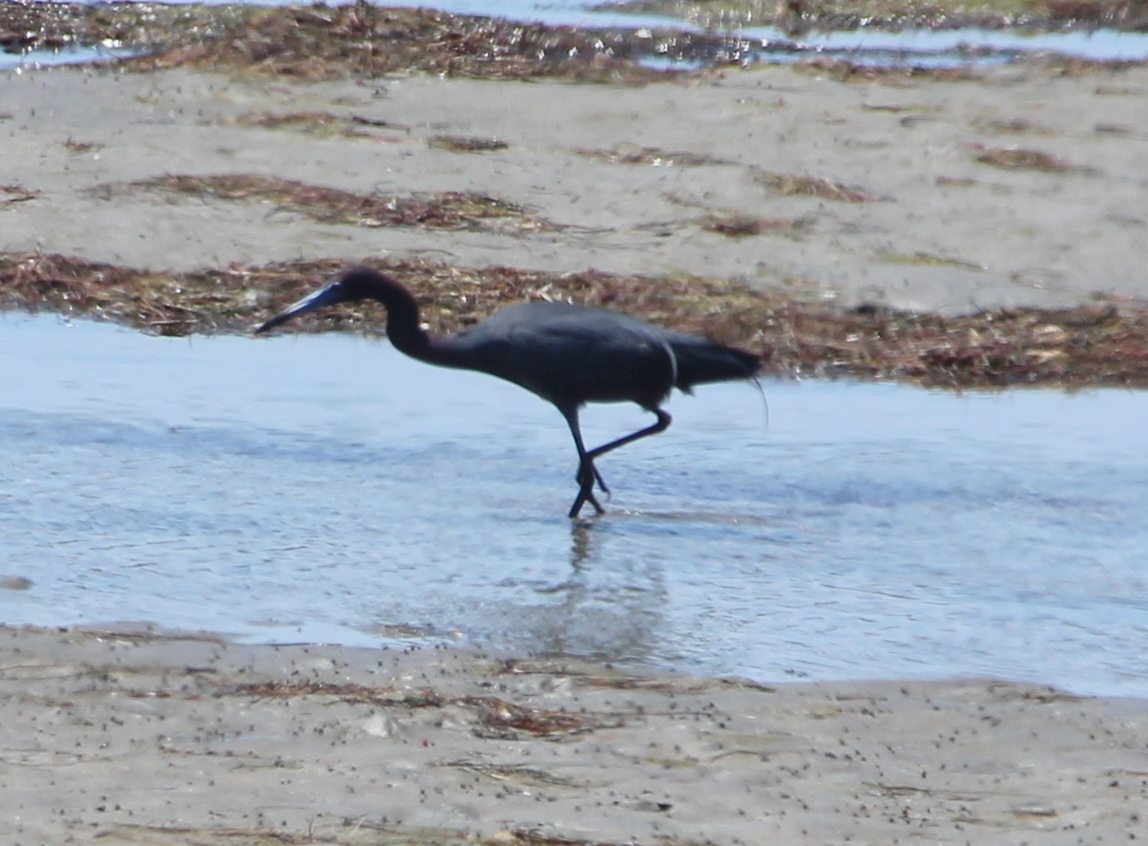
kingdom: Animalia
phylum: Chordata
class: Aves
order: Pelecaniformes
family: Ardeidae
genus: Egretta
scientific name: Egretta caerulea
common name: Little blue heron
